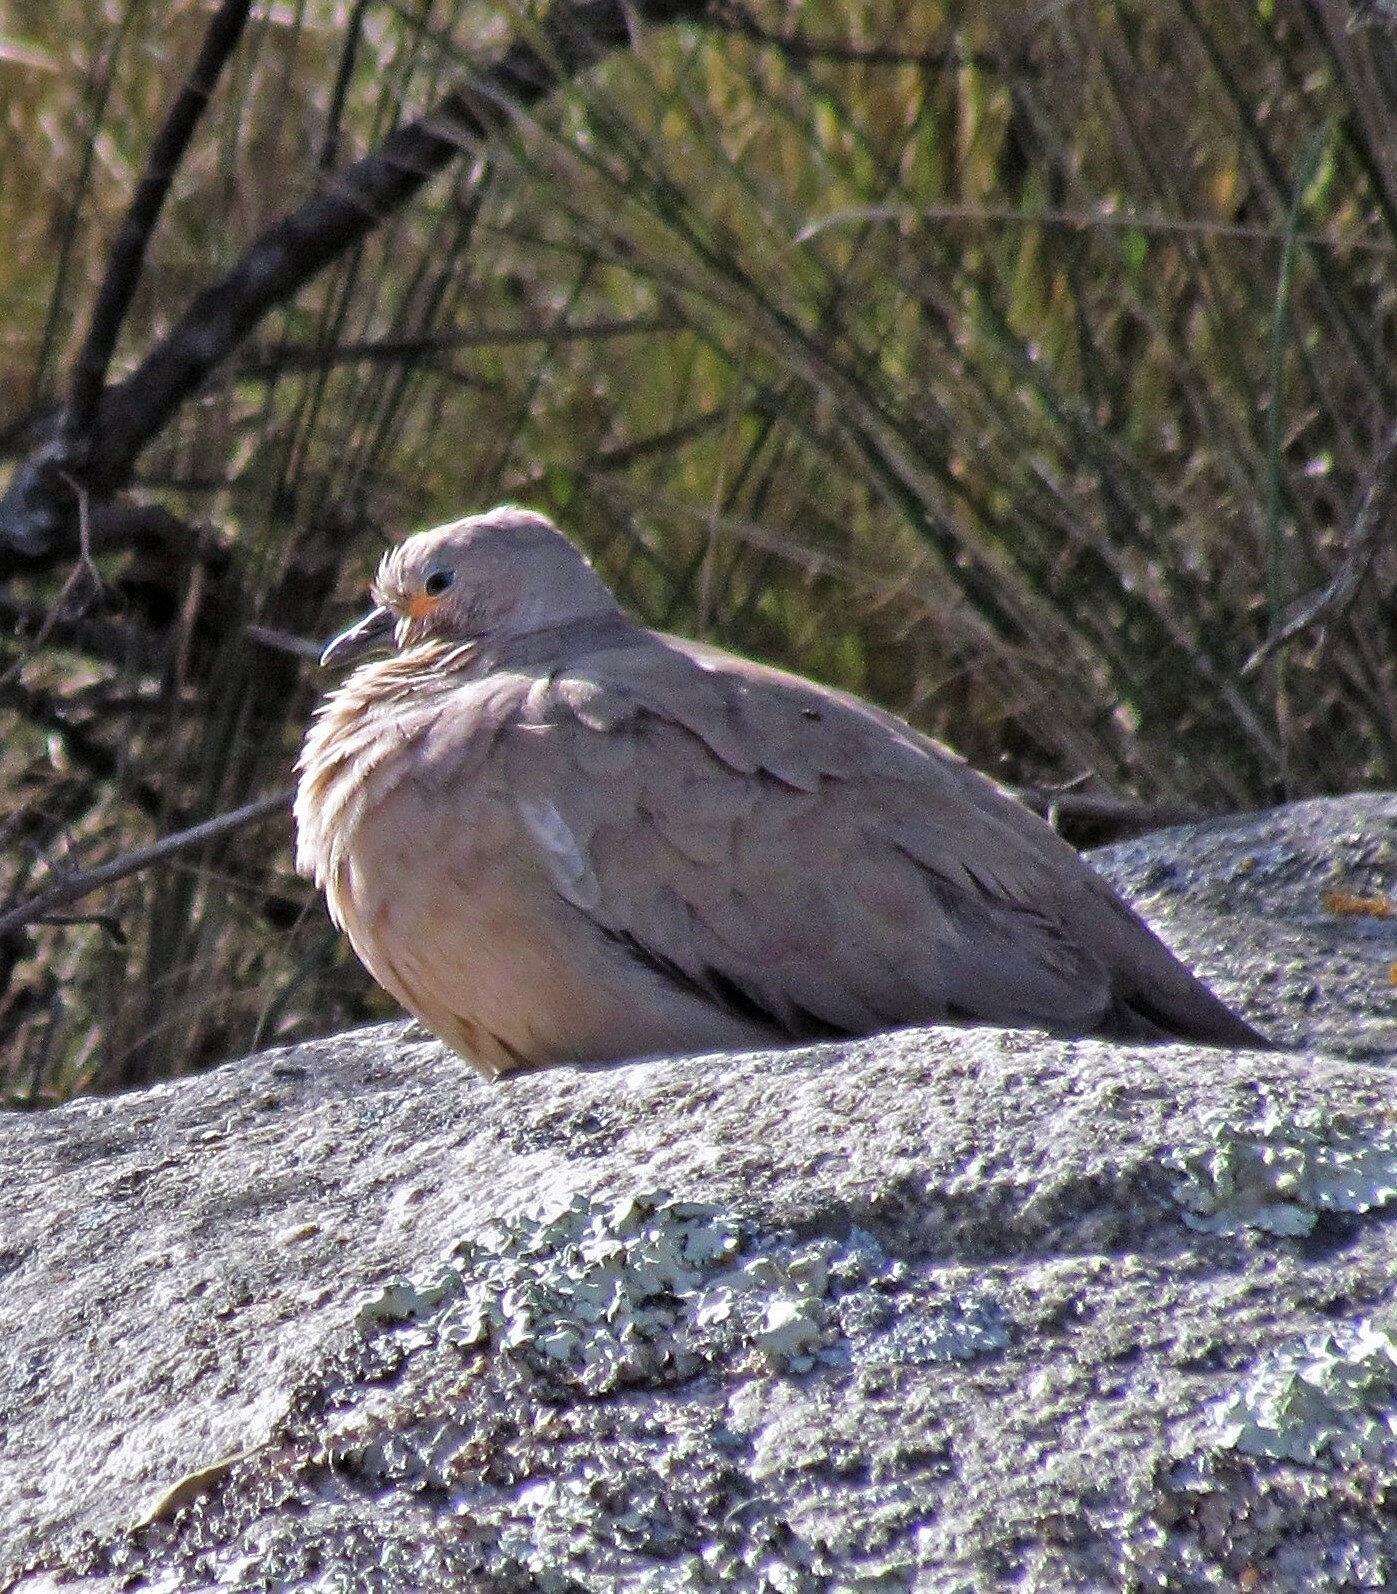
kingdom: Animalia
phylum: Chordata
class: Aves
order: Columbiformes
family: Columbidae
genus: Metriopelia
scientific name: Metriopelia melanoptera
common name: Black-winged ground dove
